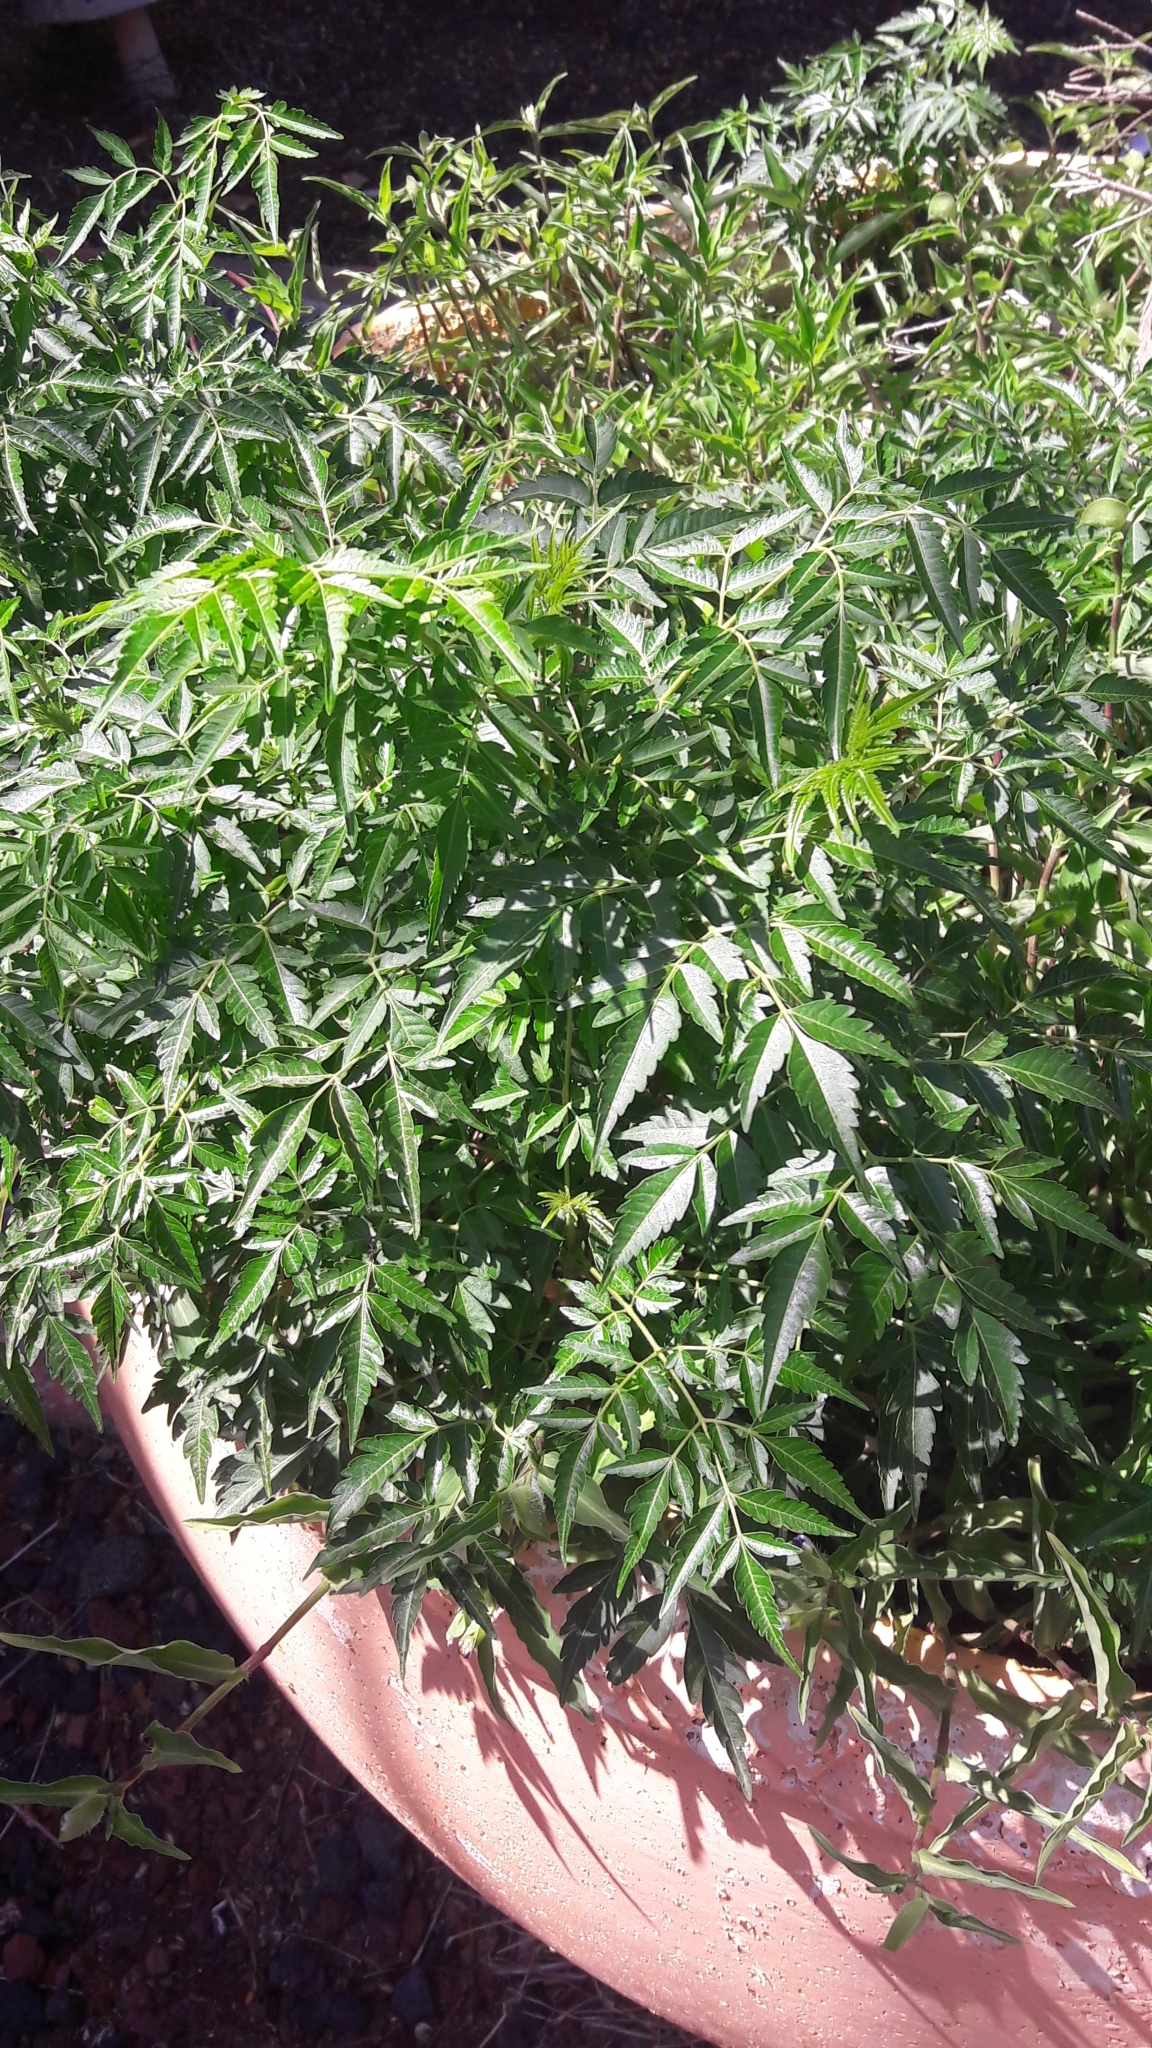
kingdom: Plantae
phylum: Tracheophyta
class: Magnoliopsida
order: Sapindales
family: Meliaceae
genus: Melia
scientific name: Melia azedarach
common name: Chinaberrytree
